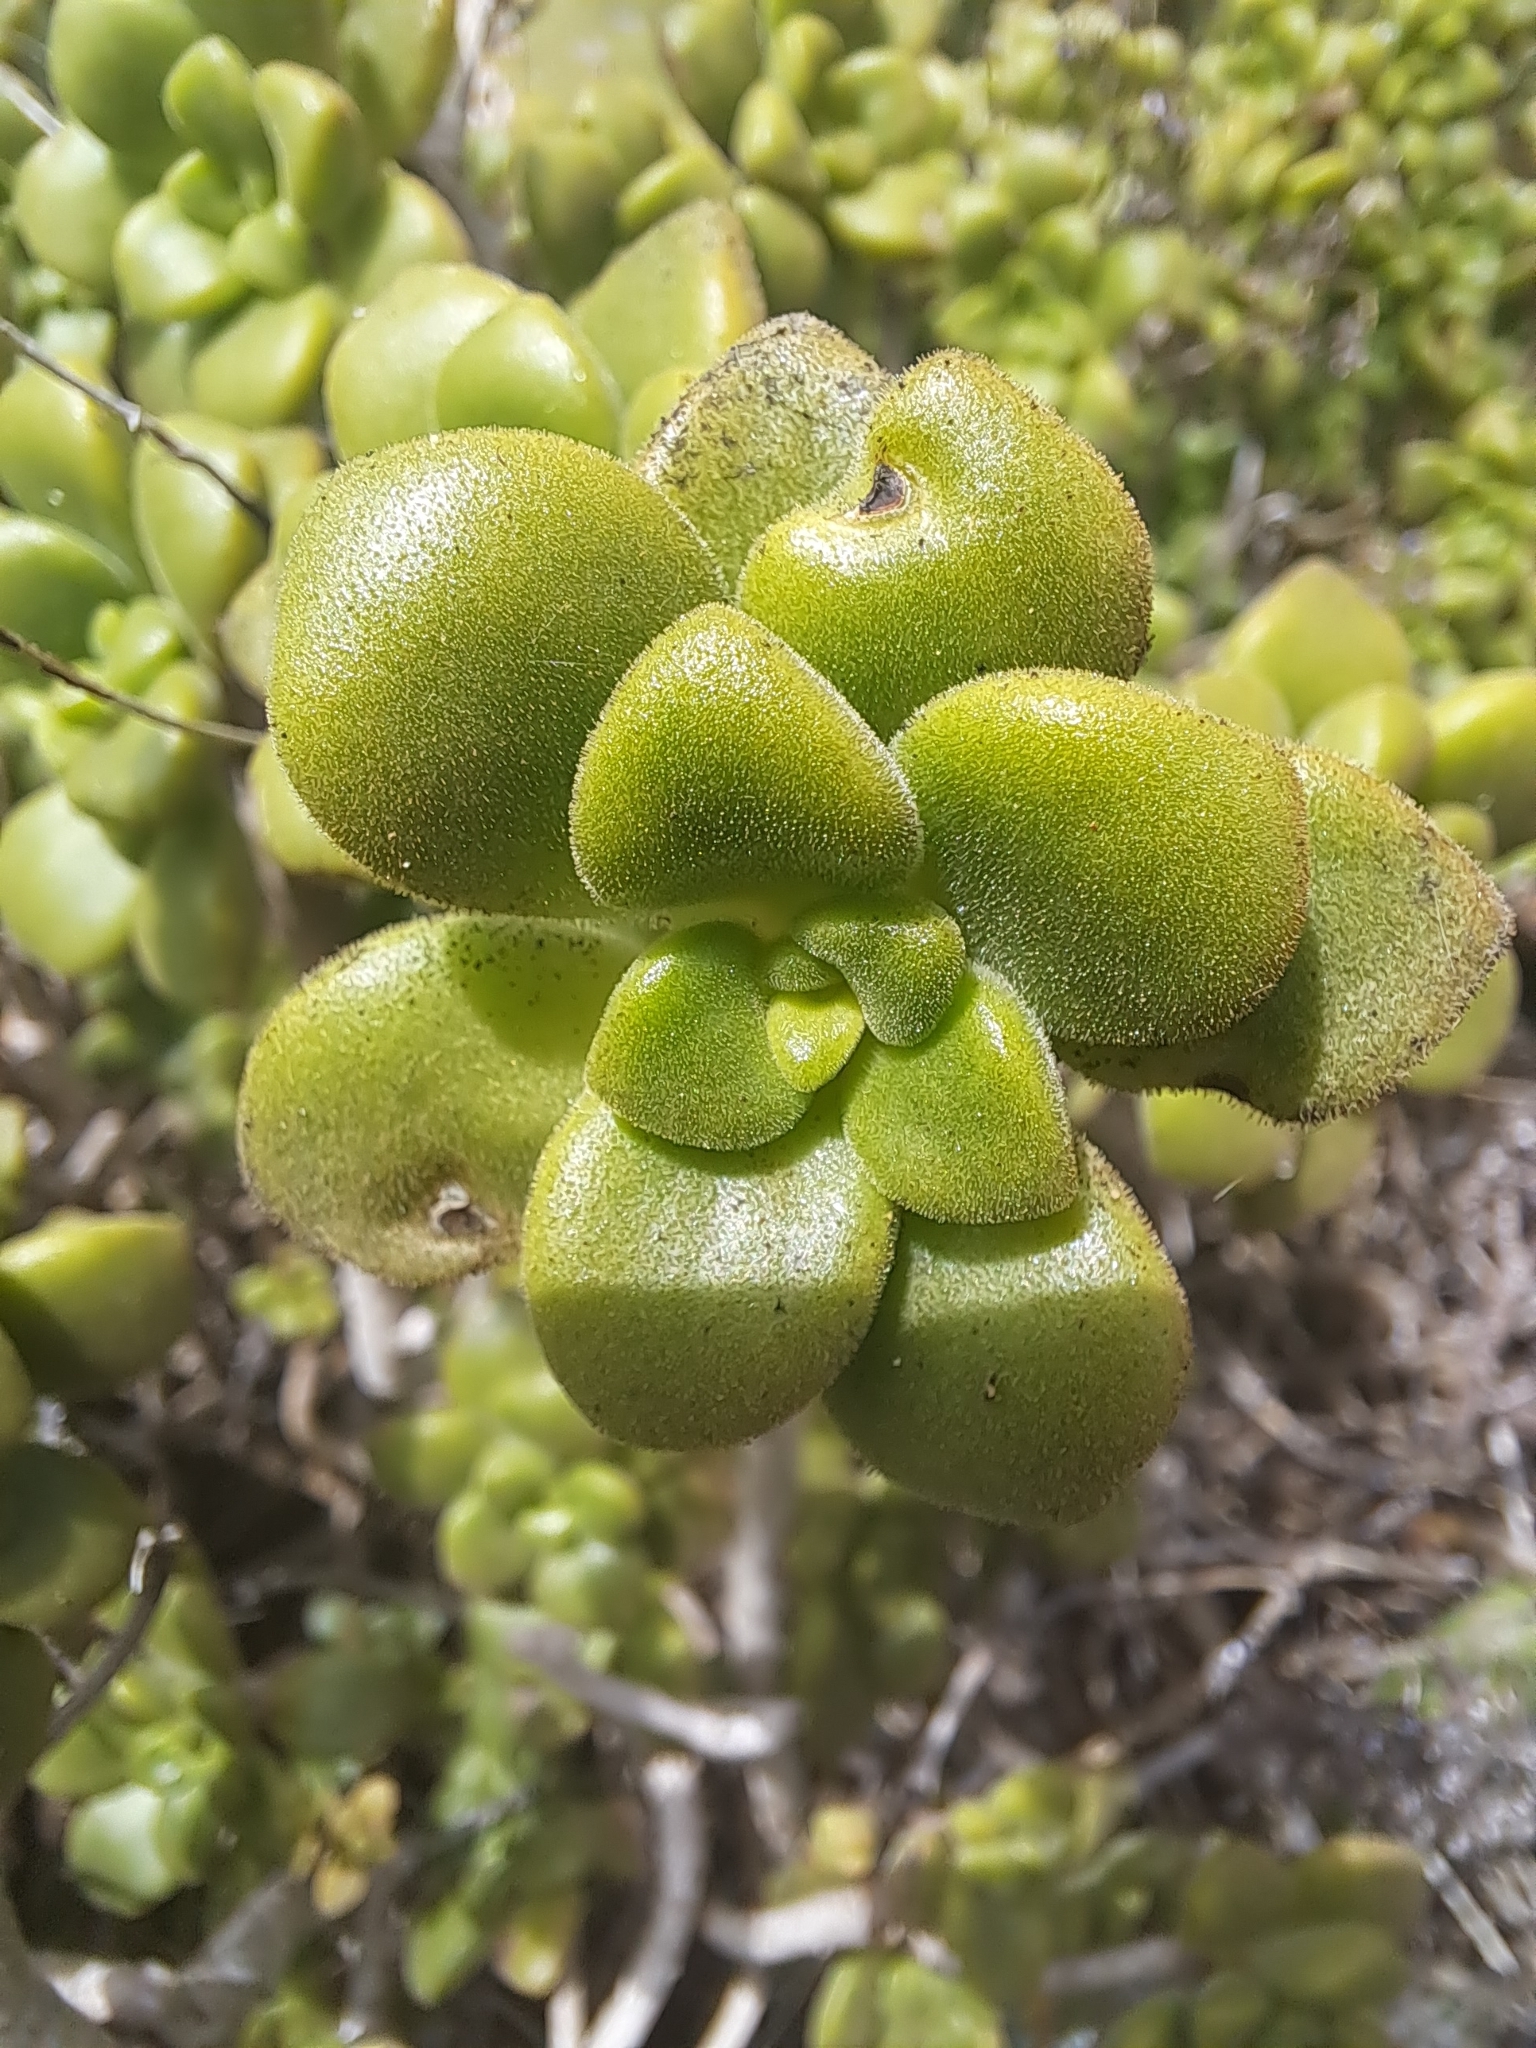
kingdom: Plantae
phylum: Tracheophyta
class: Magnoliopsida
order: Saxifragales
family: Crassulaceae
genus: Aeonium
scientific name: Aeonium lindleyi
